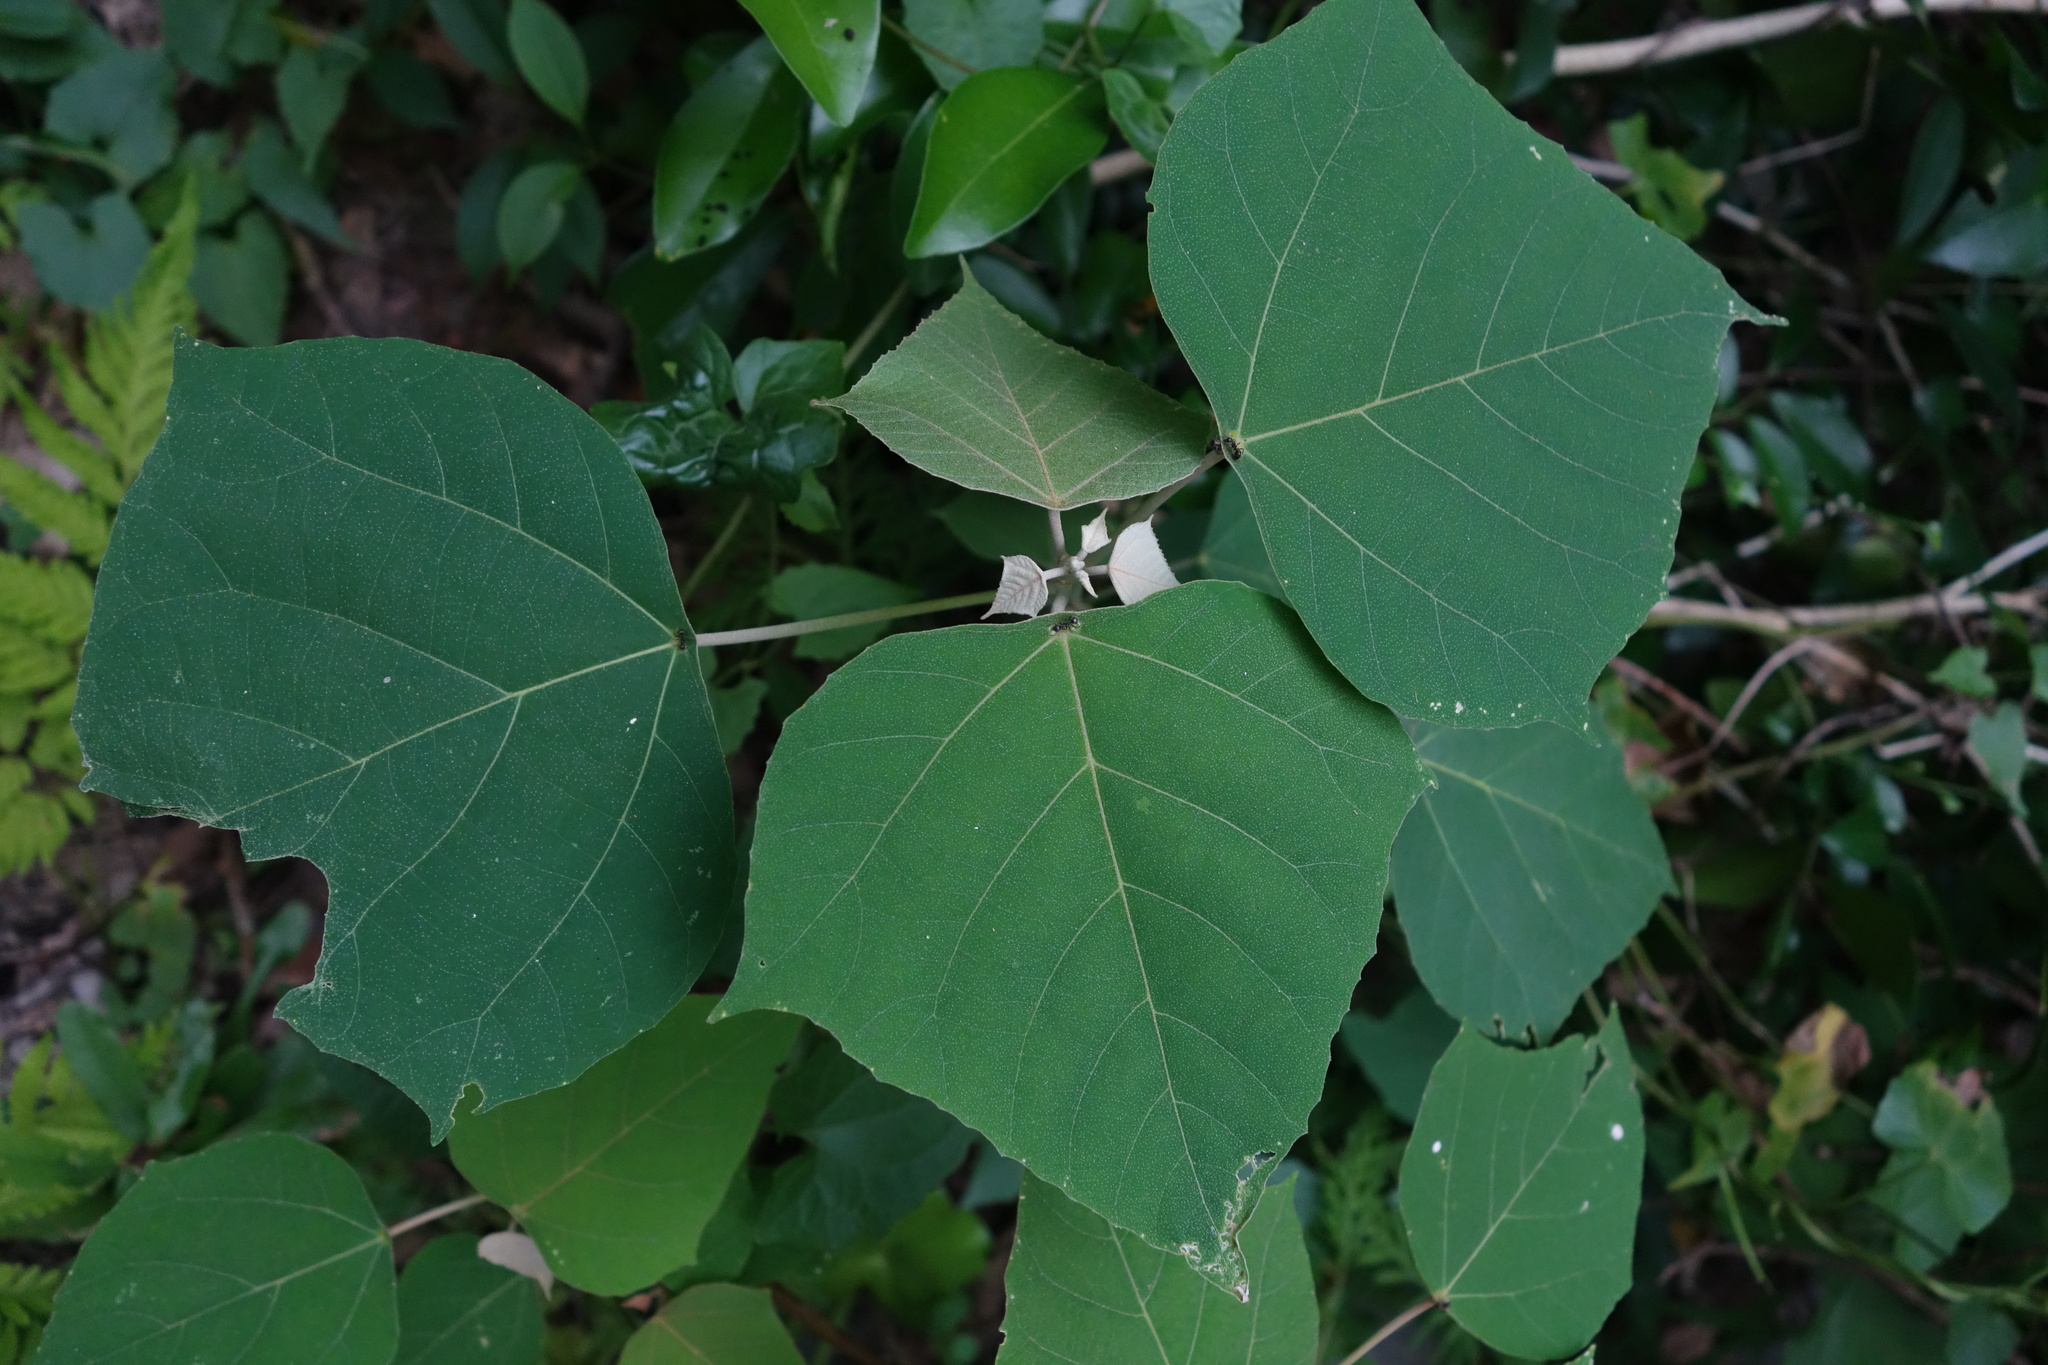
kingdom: Plantae
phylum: Tracheophyta
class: Magnoliopsida
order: Malpighiales
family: Euphorbiaceae
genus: Mallotus
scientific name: Mallotus paniculatus
